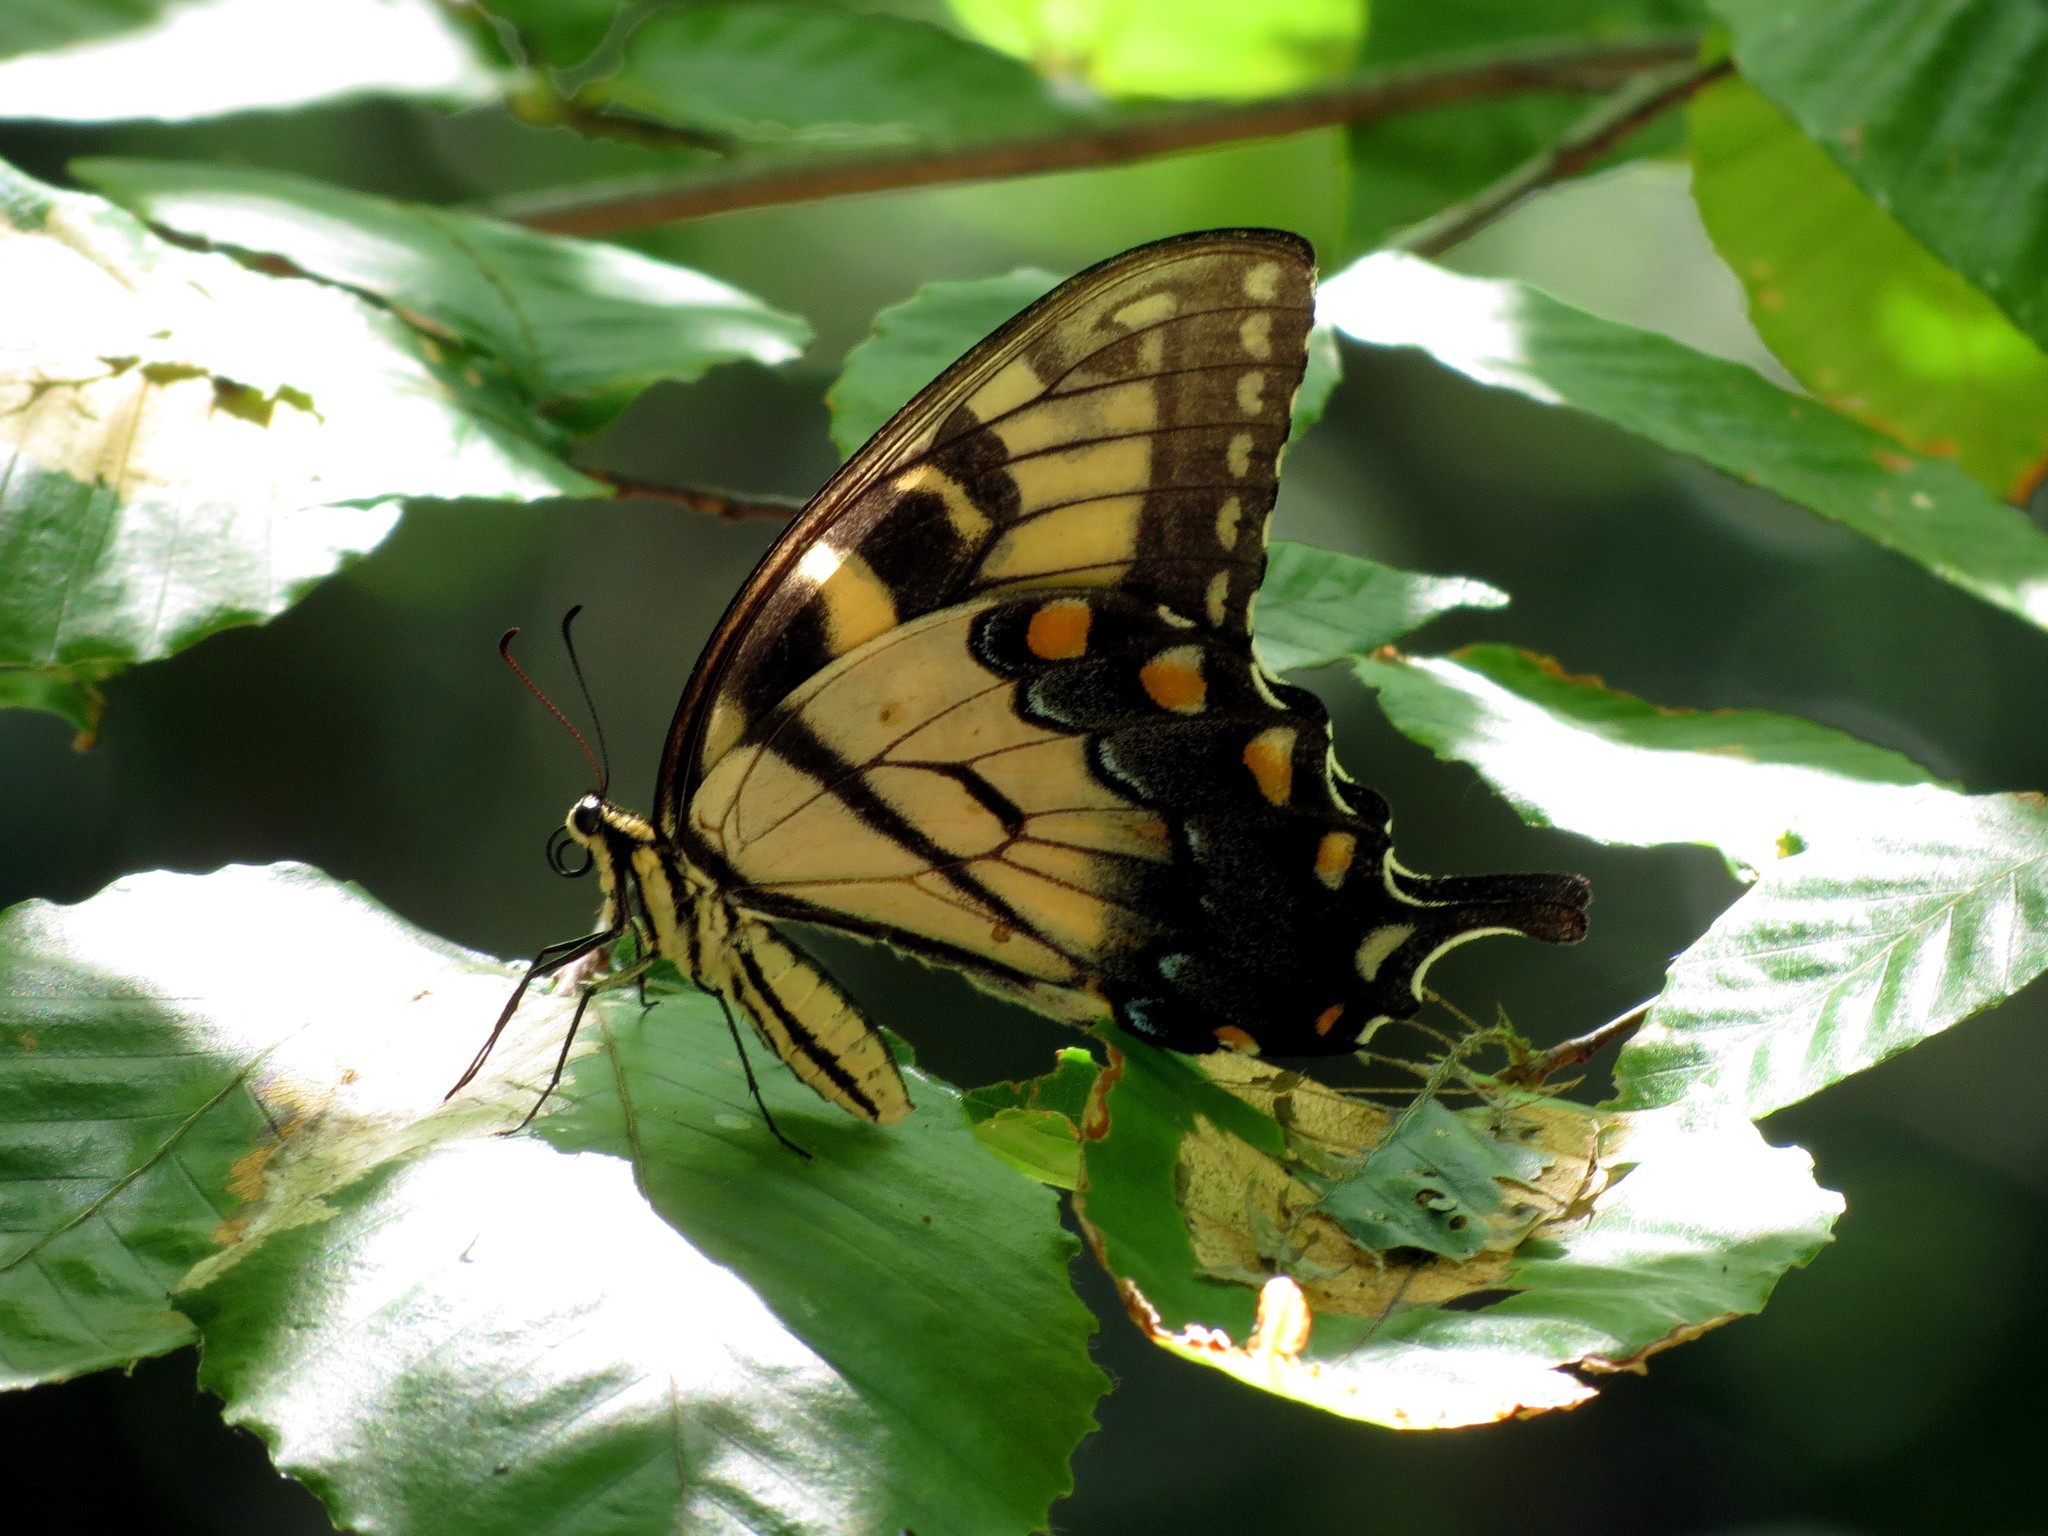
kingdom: Animalia
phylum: Arthropoda
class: Insecta
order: Lepidoptera
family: Papilionidae
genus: Papilio
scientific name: Papilio glaucus
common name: Tiger swallowtail
